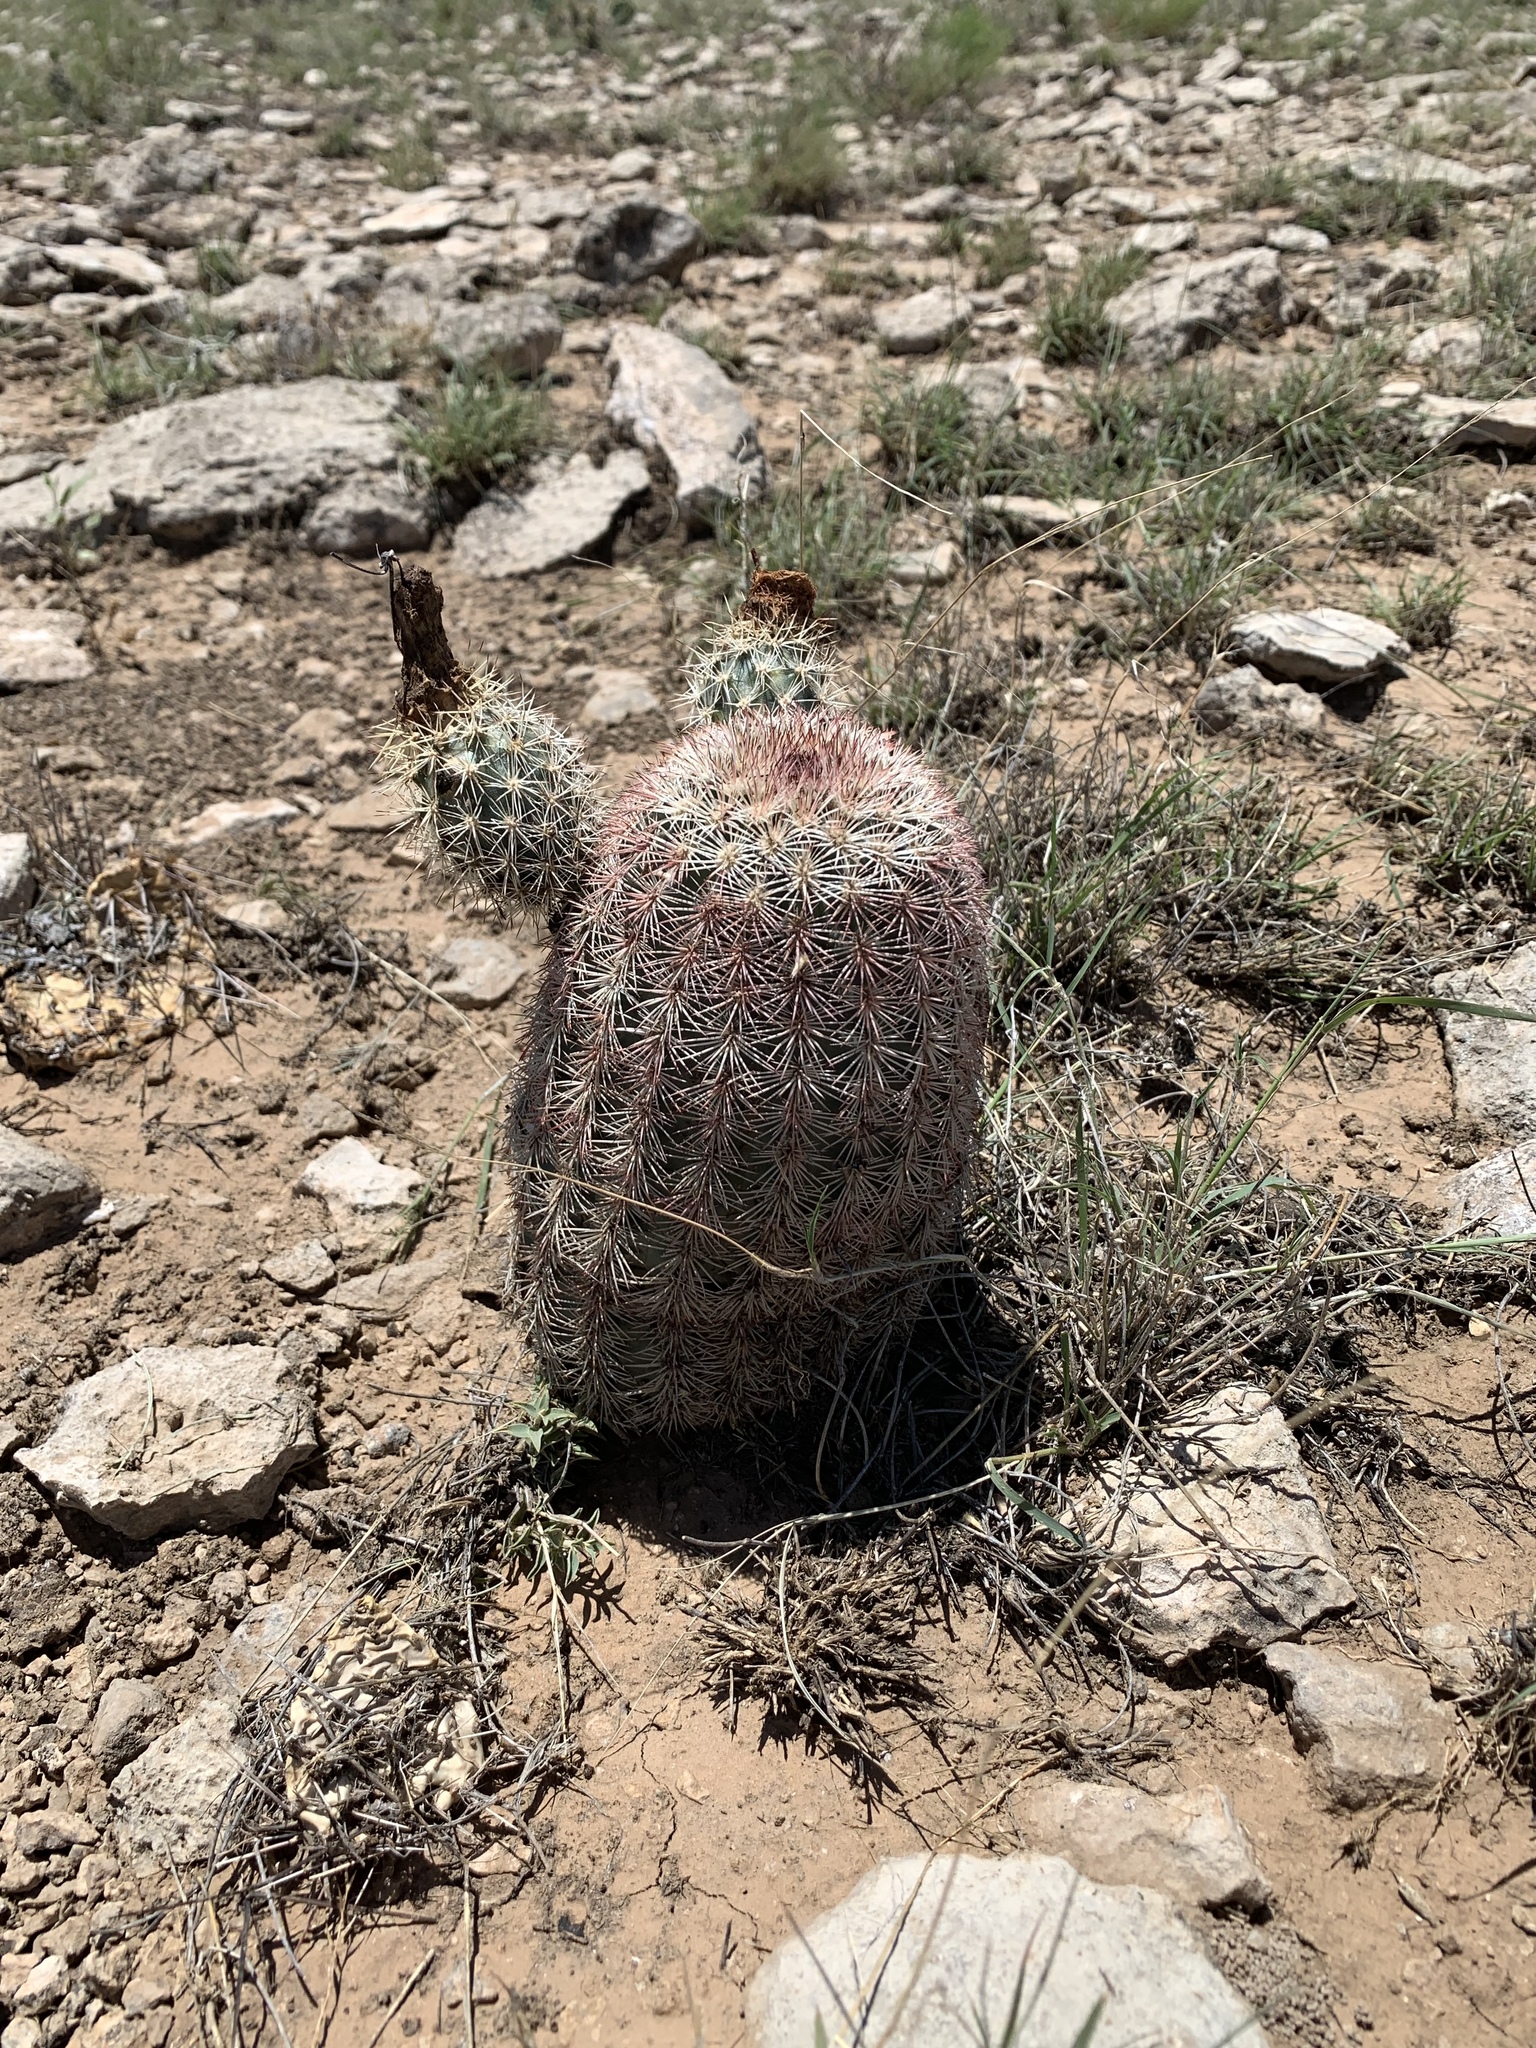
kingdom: Plantae
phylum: Tracheophyta
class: Magnoliopsida
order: Caryophyllales
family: Cactaceae
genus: Echinocereus
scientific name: Echinocereus dasyacanthus
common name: Spiny hedgehog cactus
